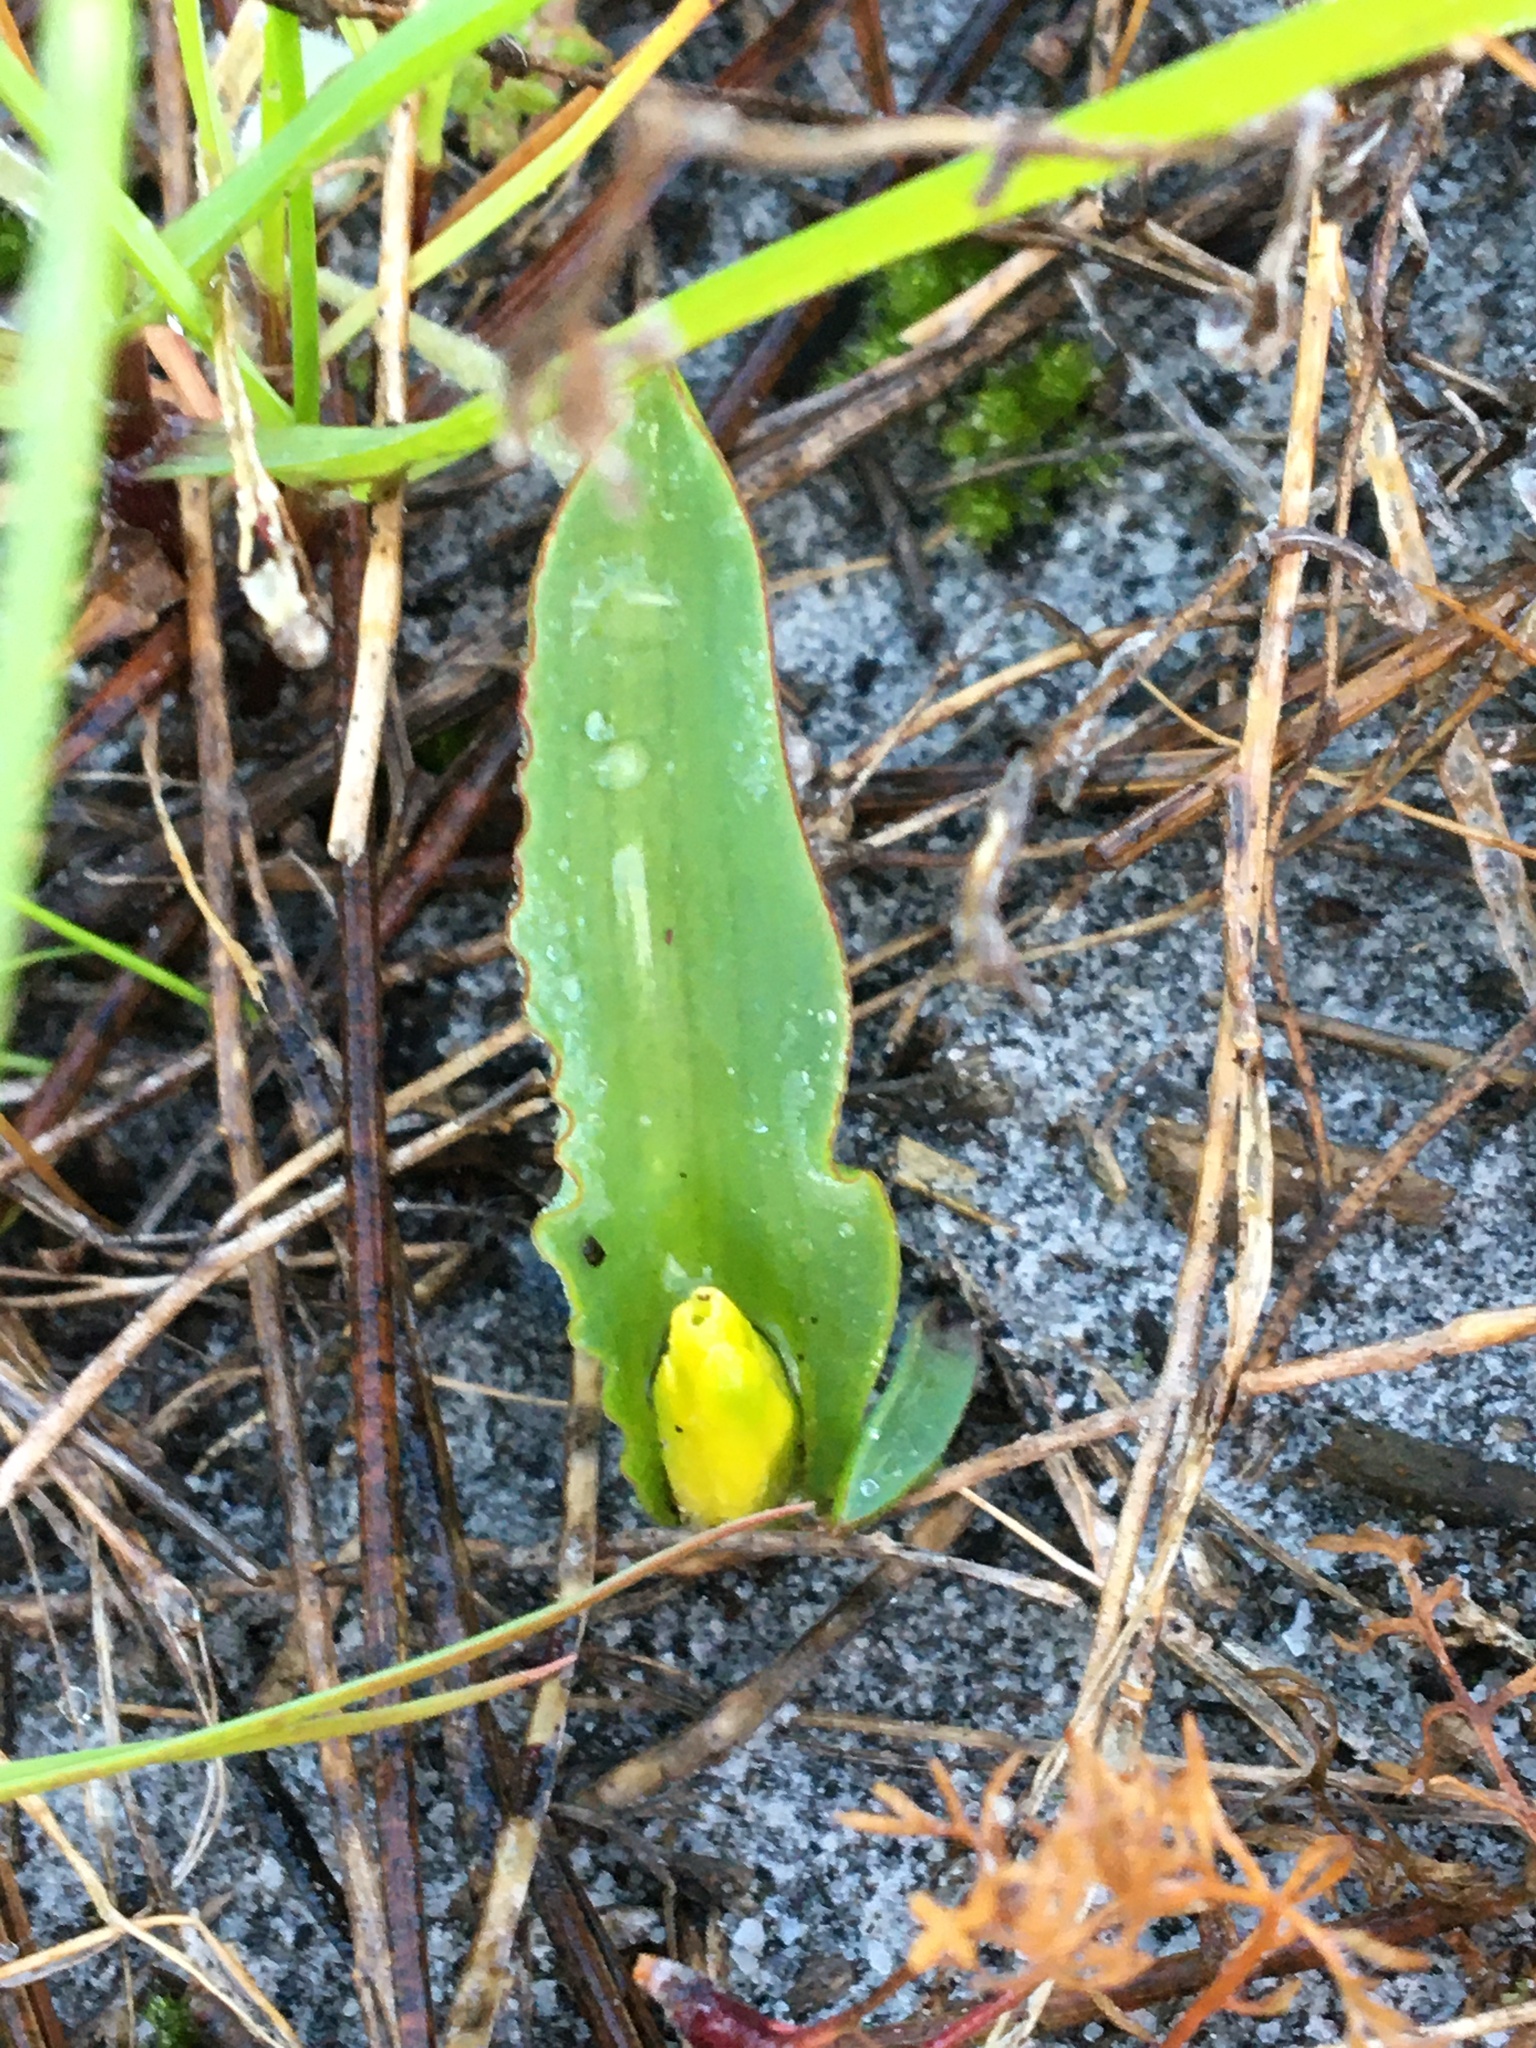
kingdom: Plantae
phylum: Tracheophyta
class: Liliopsida
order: Asparagales
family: Asparagaceae
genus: Lachenalia
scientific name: Lachenalia reflexa
